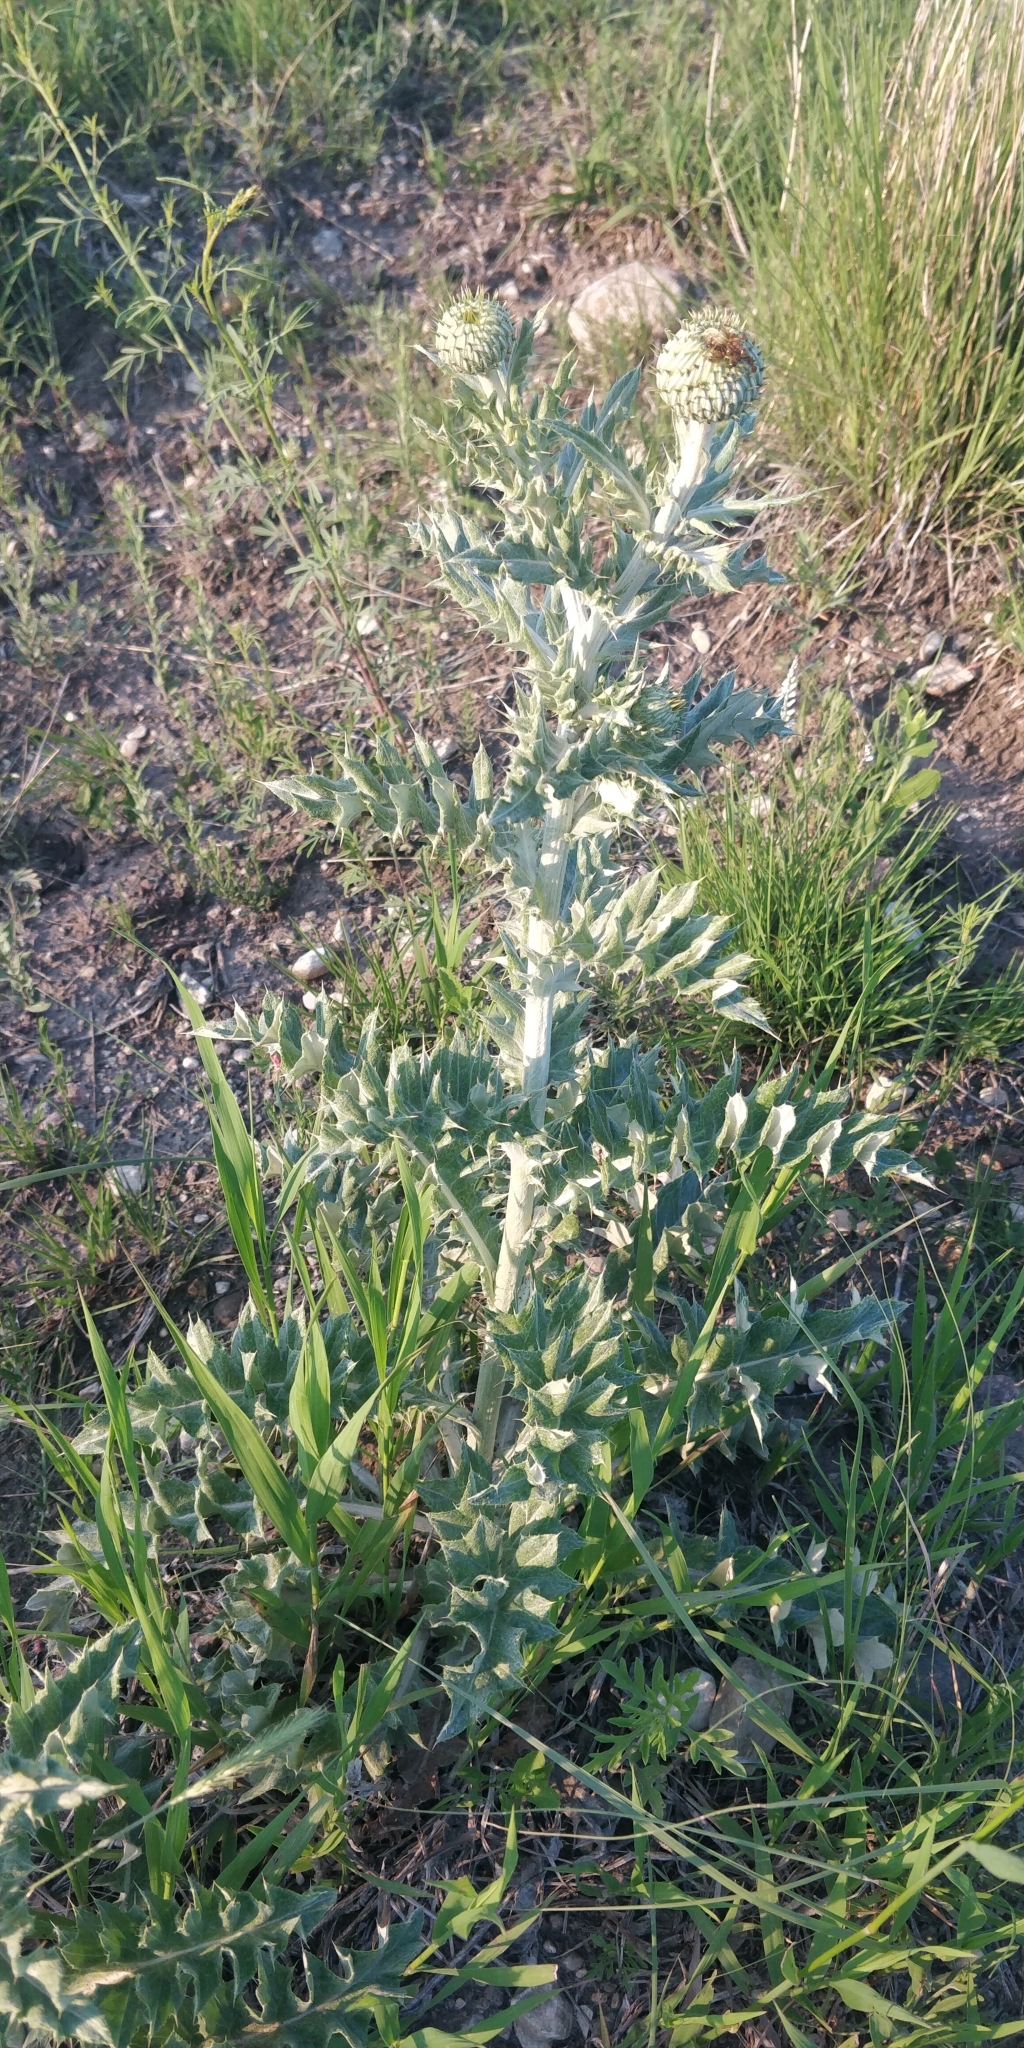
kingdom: Plantae
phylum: Tracheophyta
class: Magnoliopsida
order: Asterales
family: Asteraceae
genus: Cirsium
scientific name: Cirsium undulatum
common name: Pasture thistle
